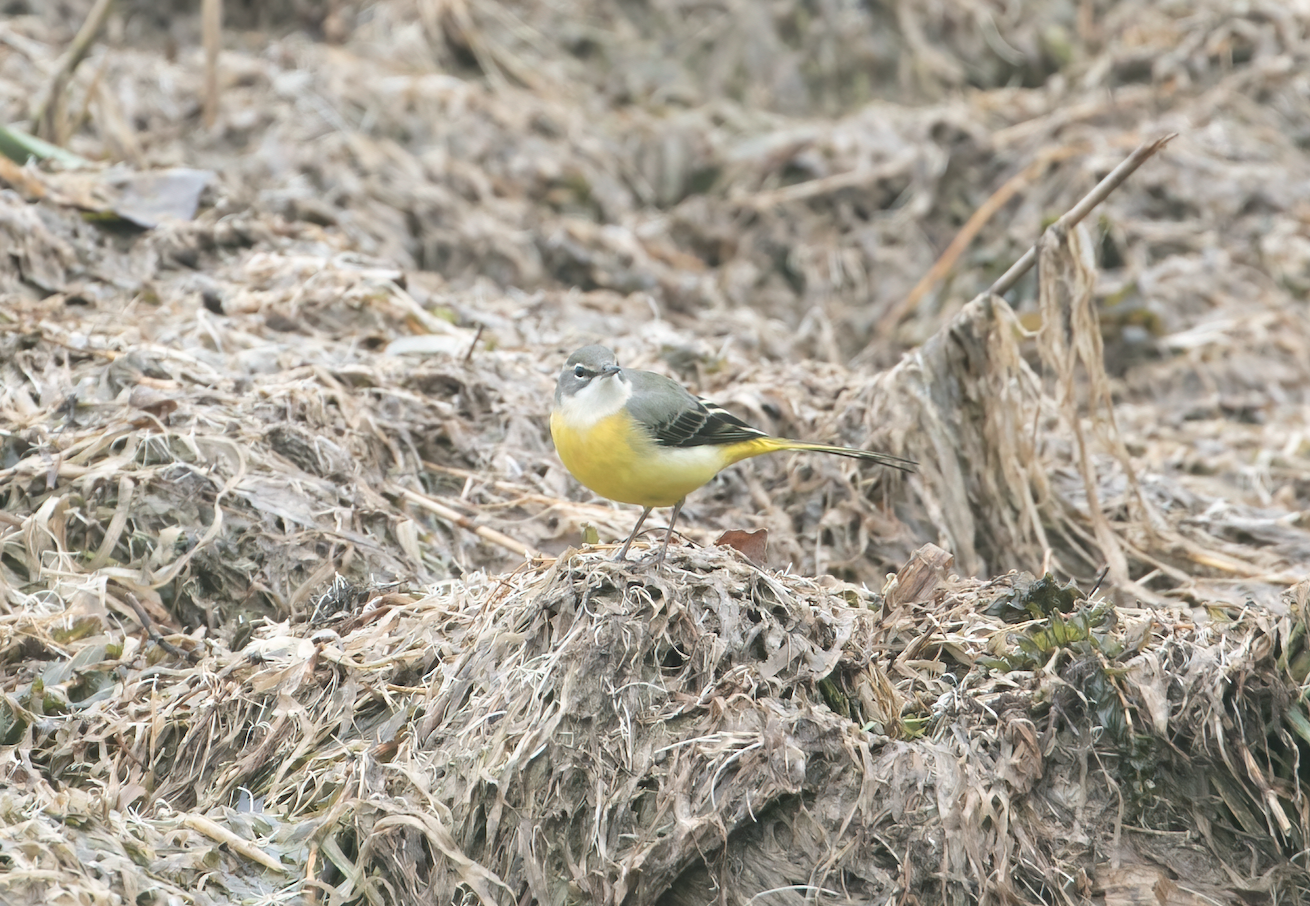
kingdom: Animalia
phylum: Chordata
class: Aves
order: Passeriformes
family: Motacillidae
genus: Motacilla
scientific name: Motacilla cinerea
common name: Grey wagtail
